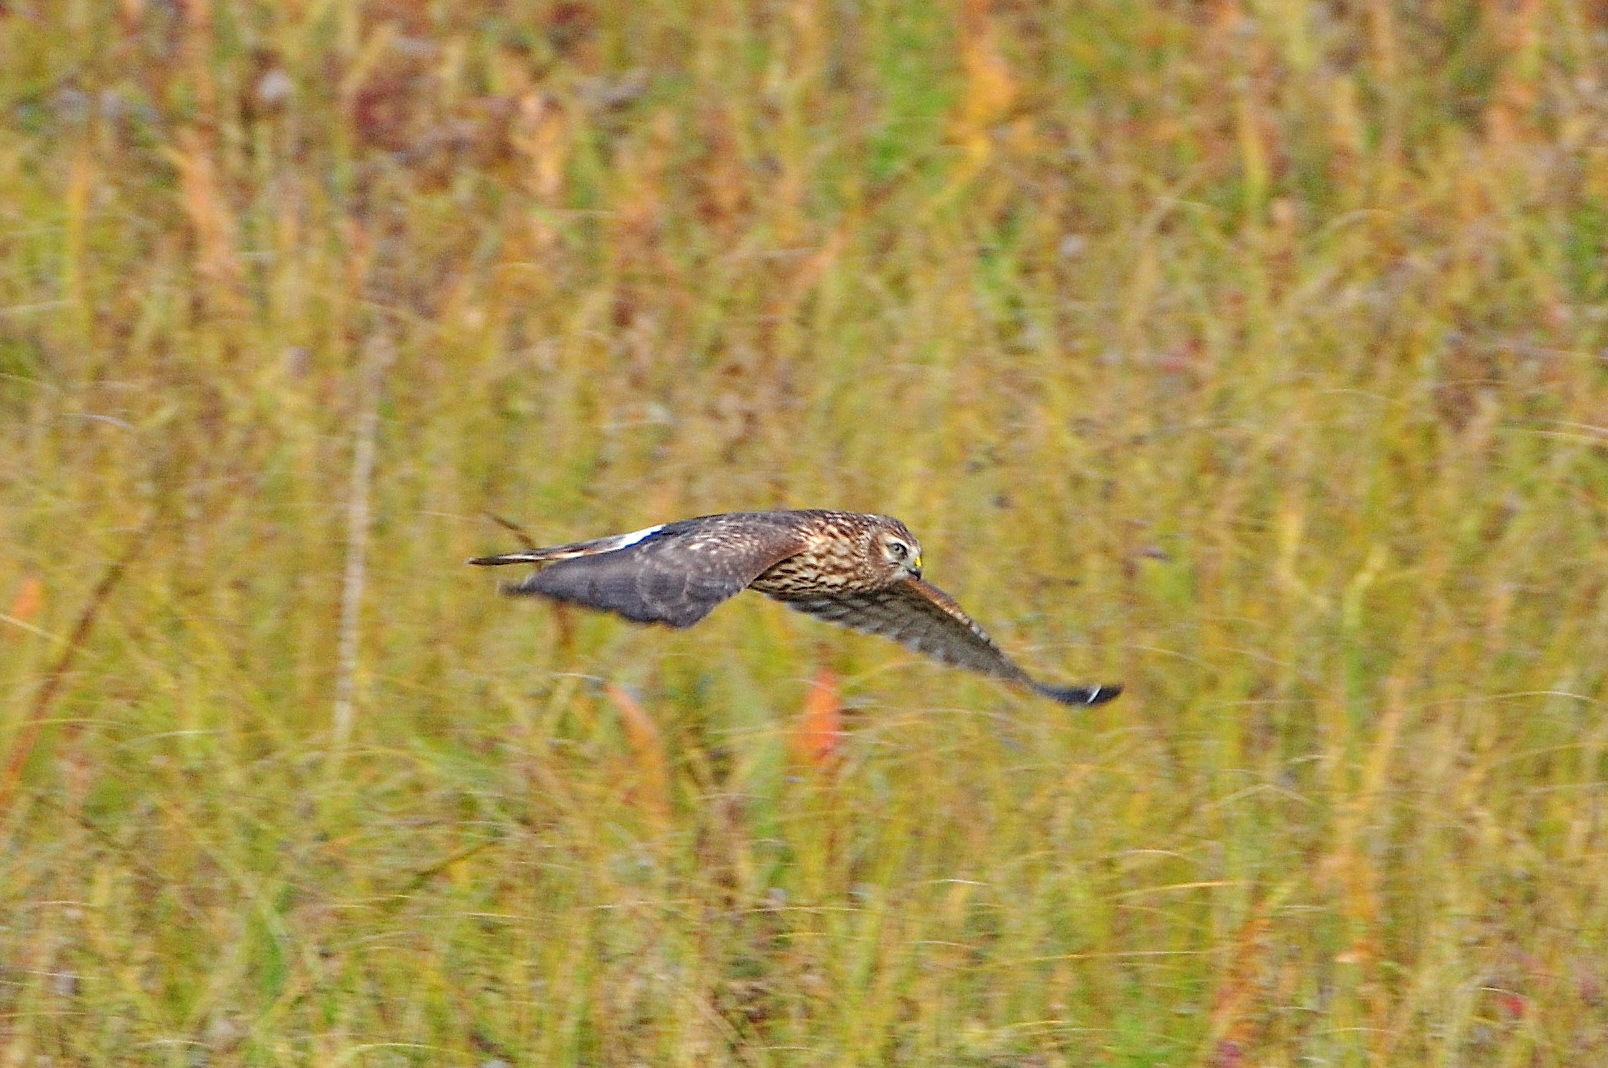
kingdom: Animalia
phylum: Chordata
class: Aves
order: Accipitriformes
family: Accipitridae
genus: Circus
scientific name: Circus cyaneus
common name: Hen harrier
